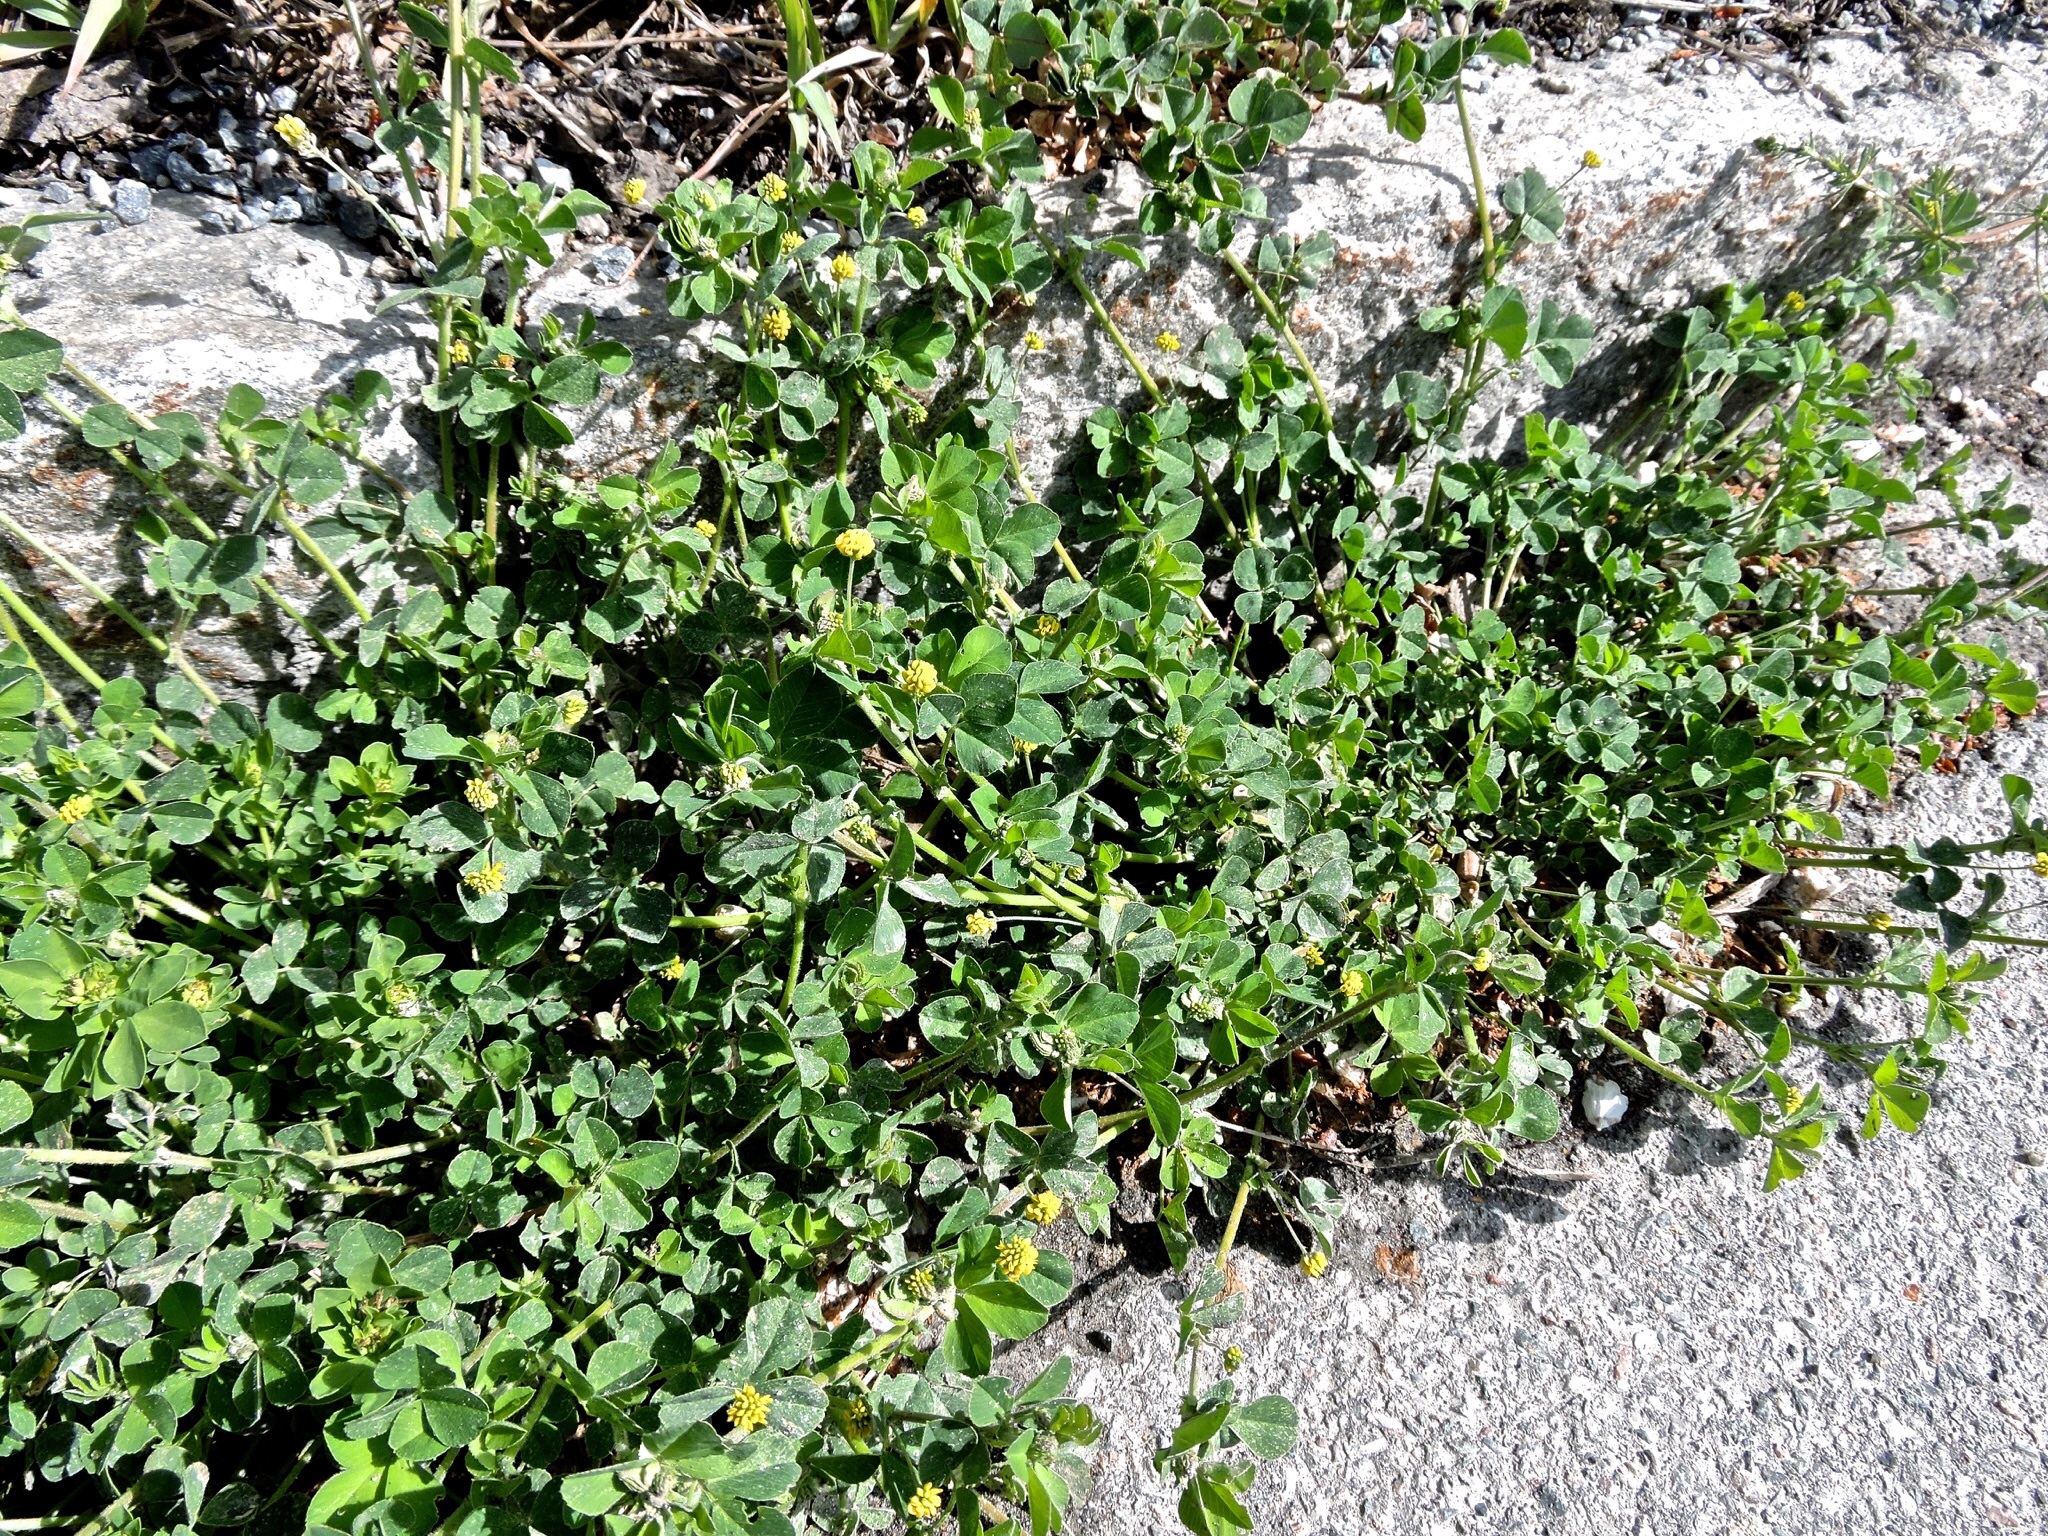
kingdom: Plantae
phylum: Tracheophyta
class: Magnoliopsida
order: Fabales
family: Fabaceae
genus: Medicago
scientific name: Medicago lupulina
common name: Black medick
